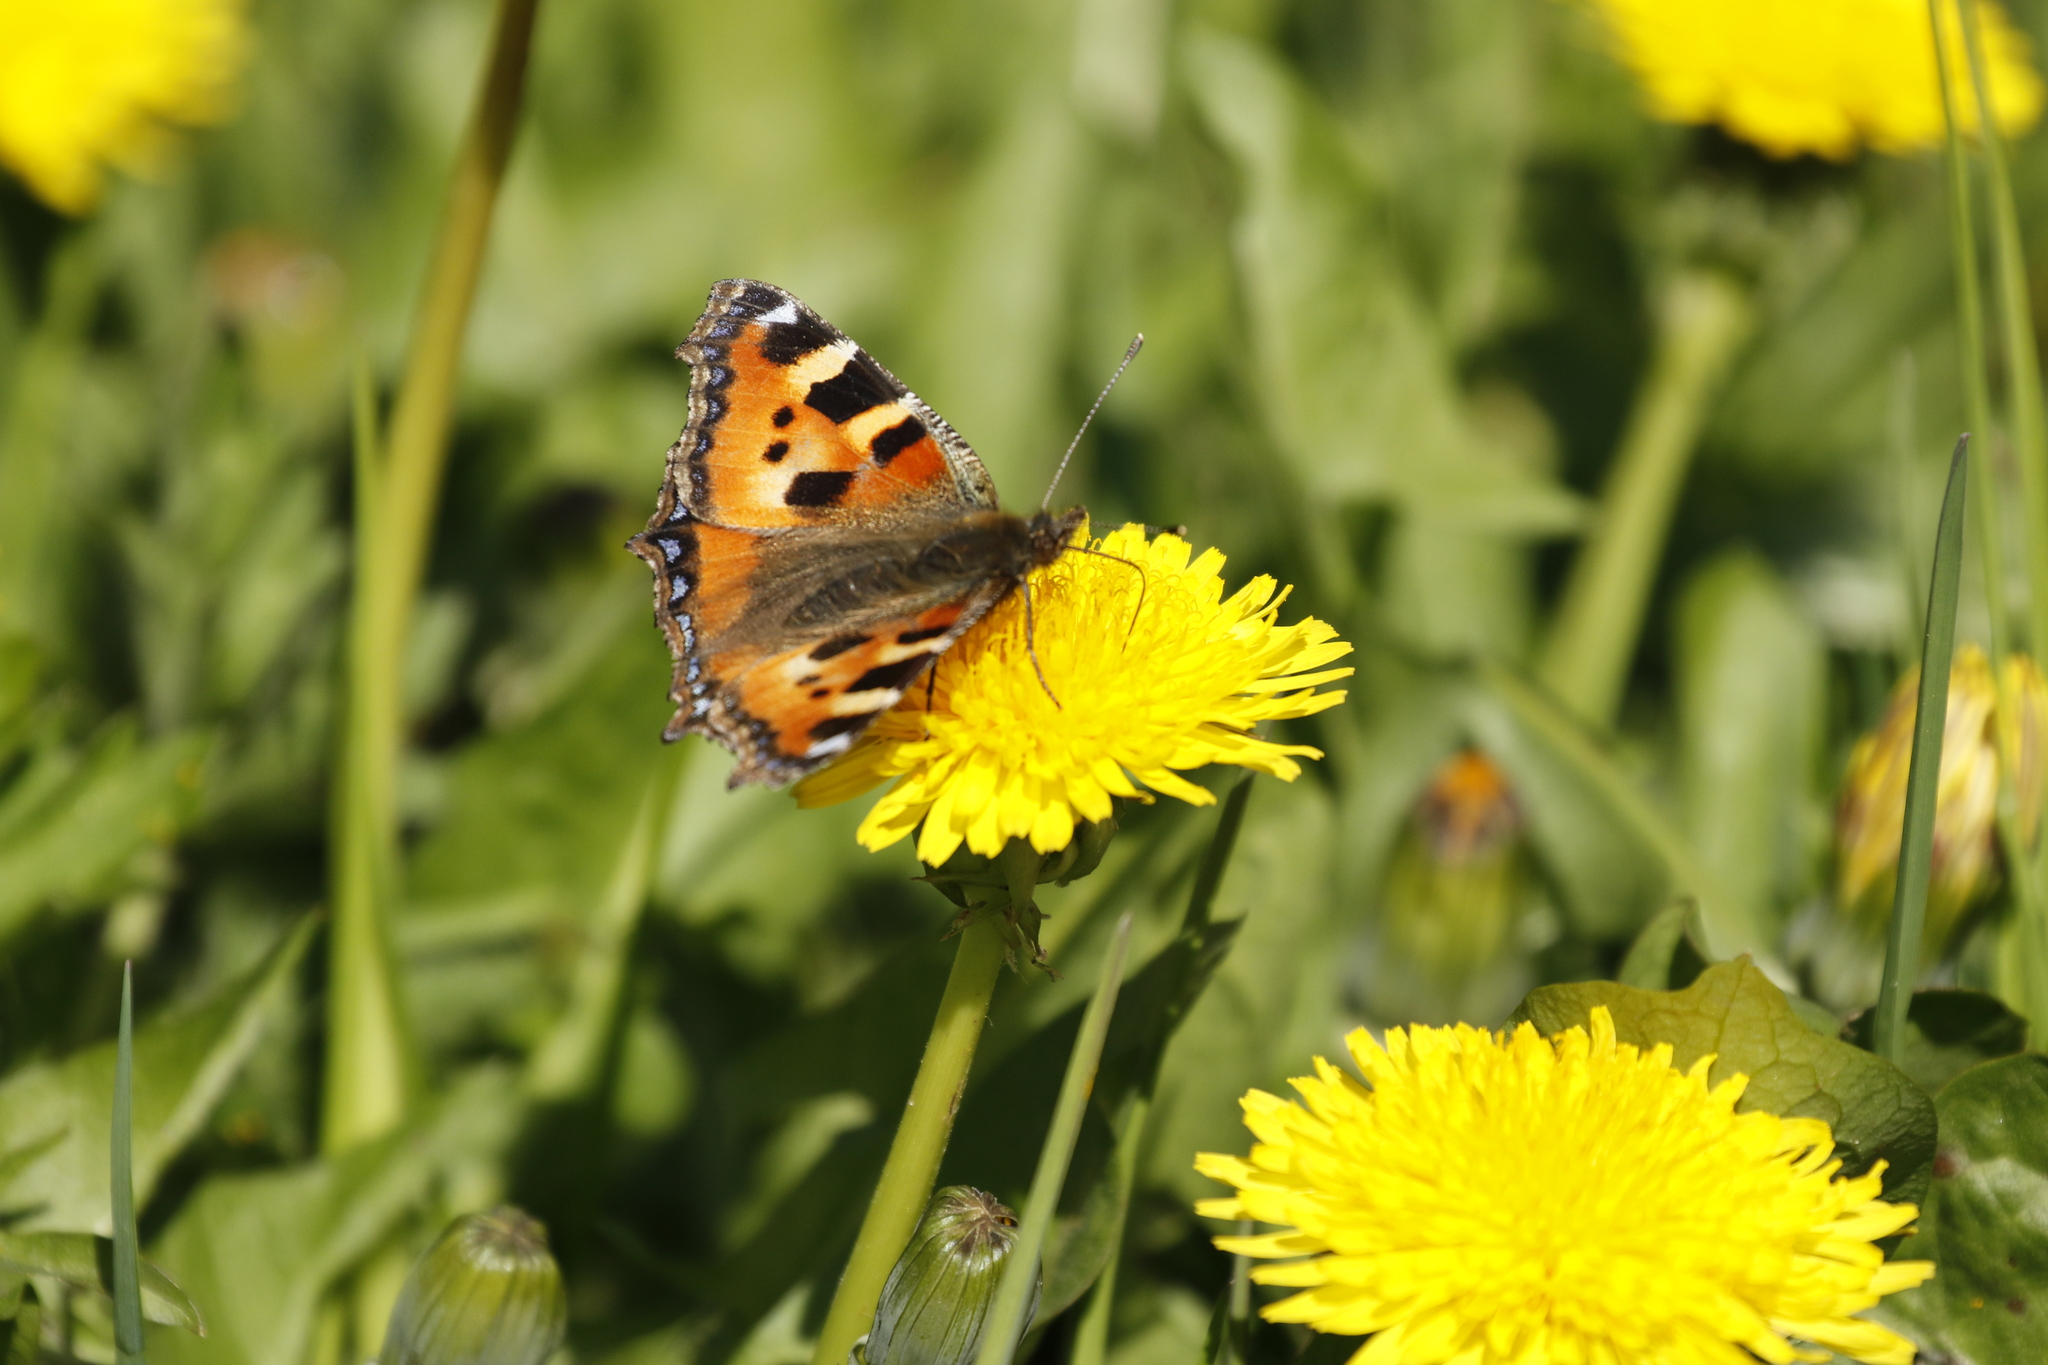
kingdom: Animalia
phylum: Arthropoda
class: Insecta
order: Lepidoptera
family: Nymphalidae
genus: Aglais
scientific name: Aglais urticae
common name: Small tortoiseshell
